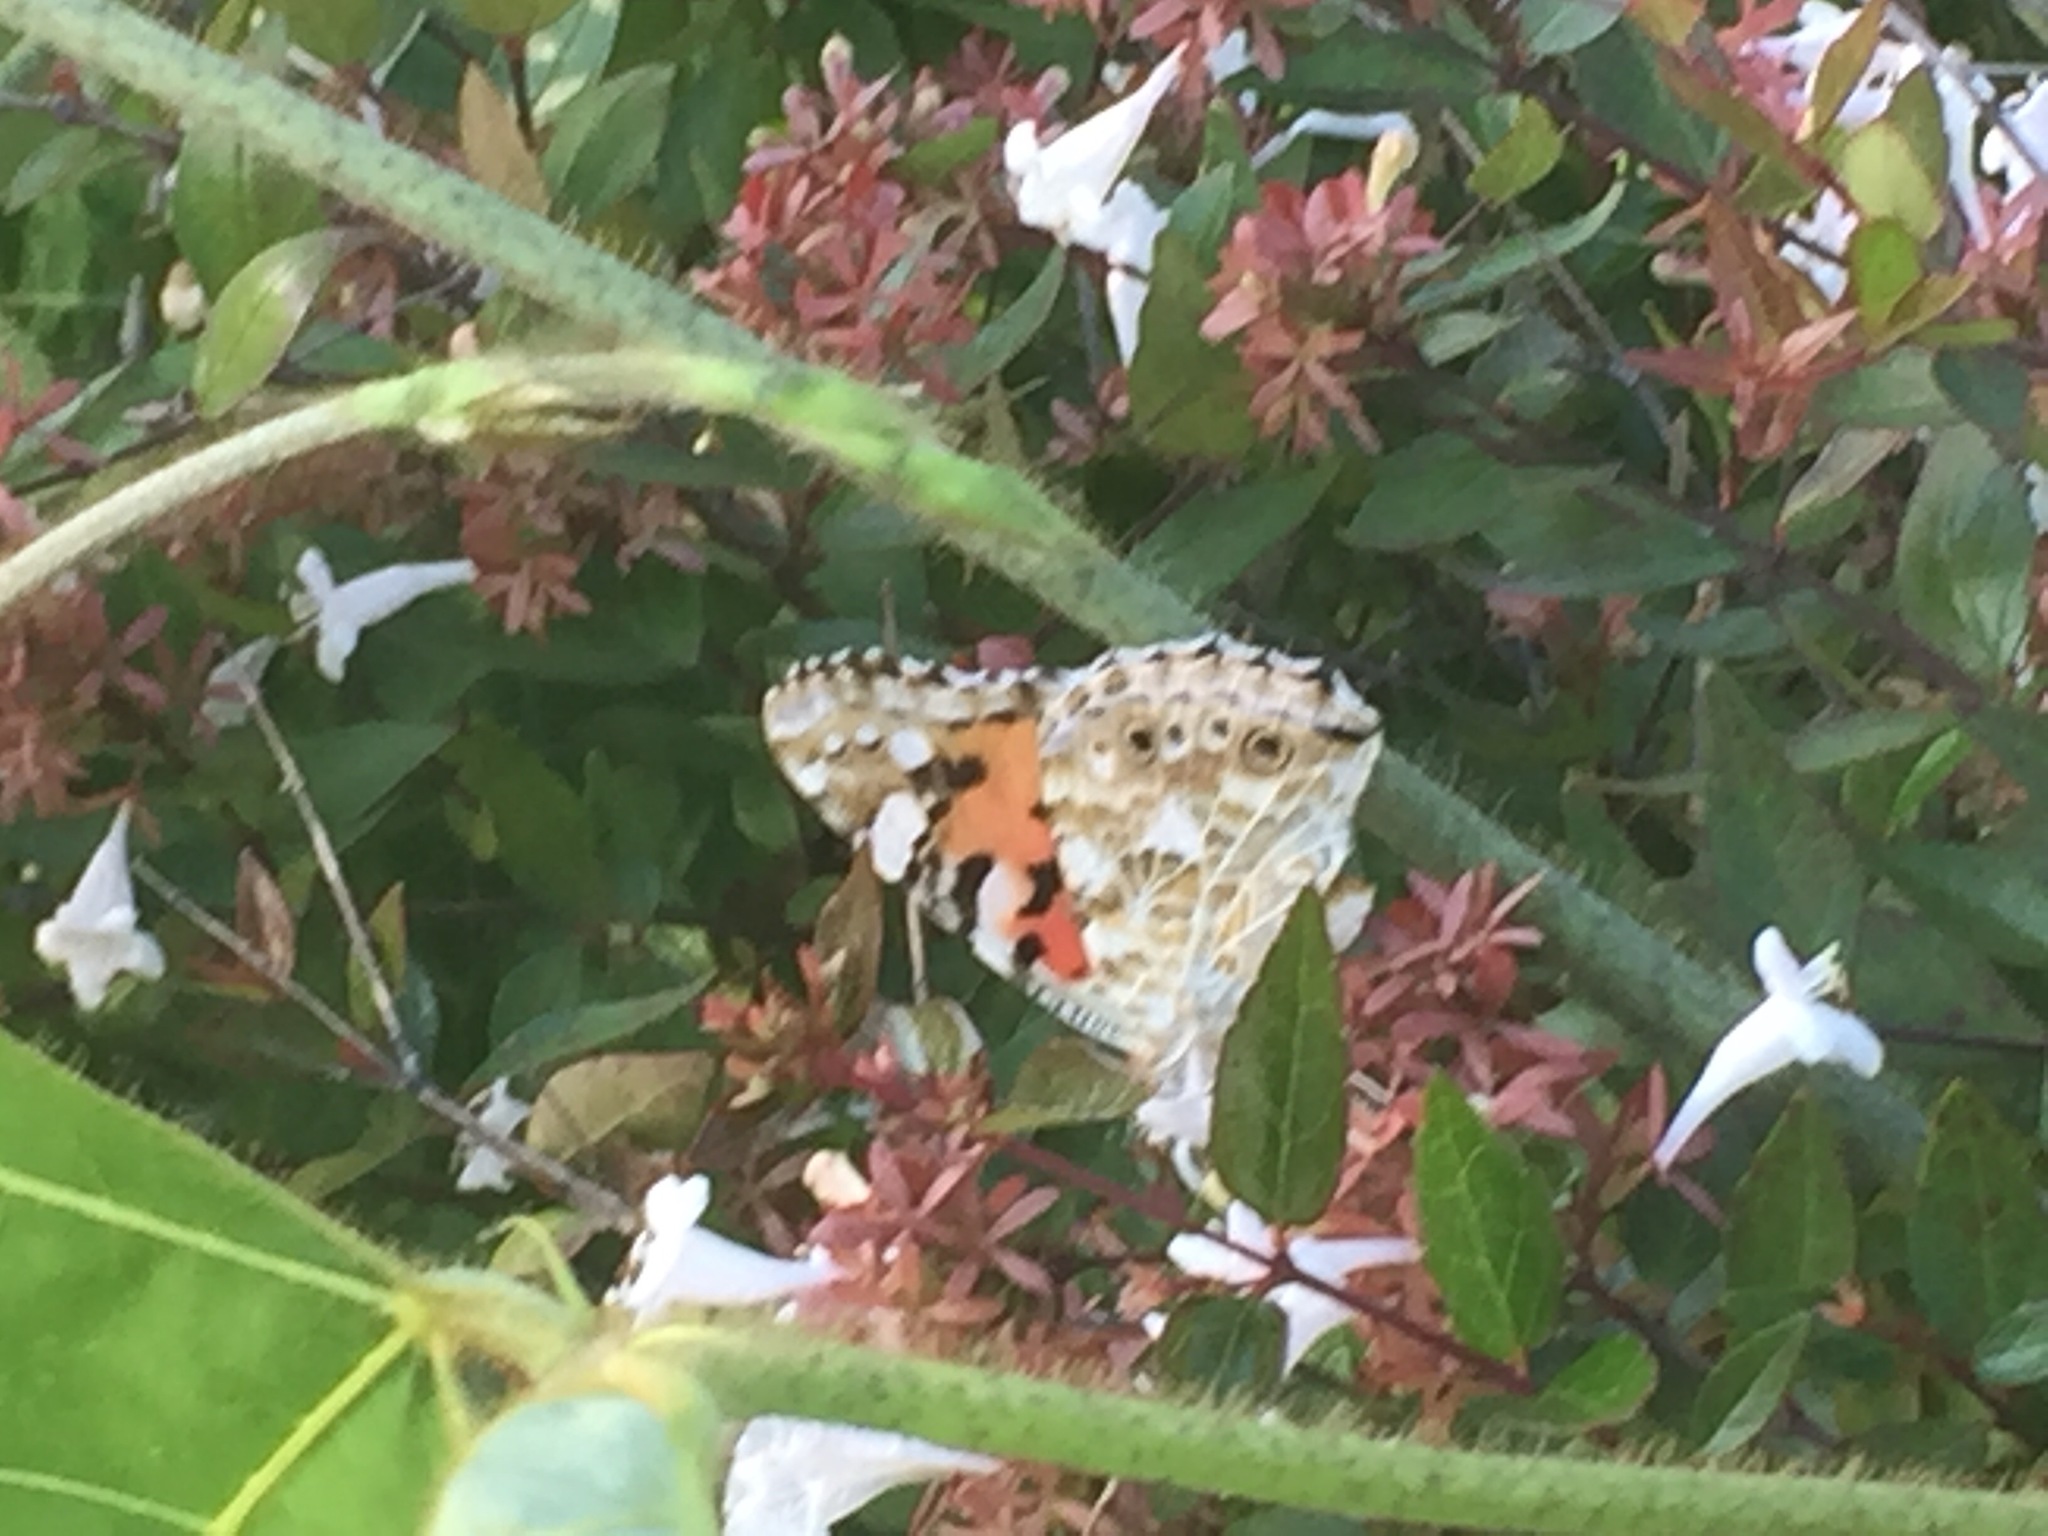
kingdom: Animalia
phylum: Arthropoda
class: Insecta
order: Lepidoptera
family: Nymphalidae
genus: Vanessa
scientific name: Vanessa cardui
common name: Painted lady
